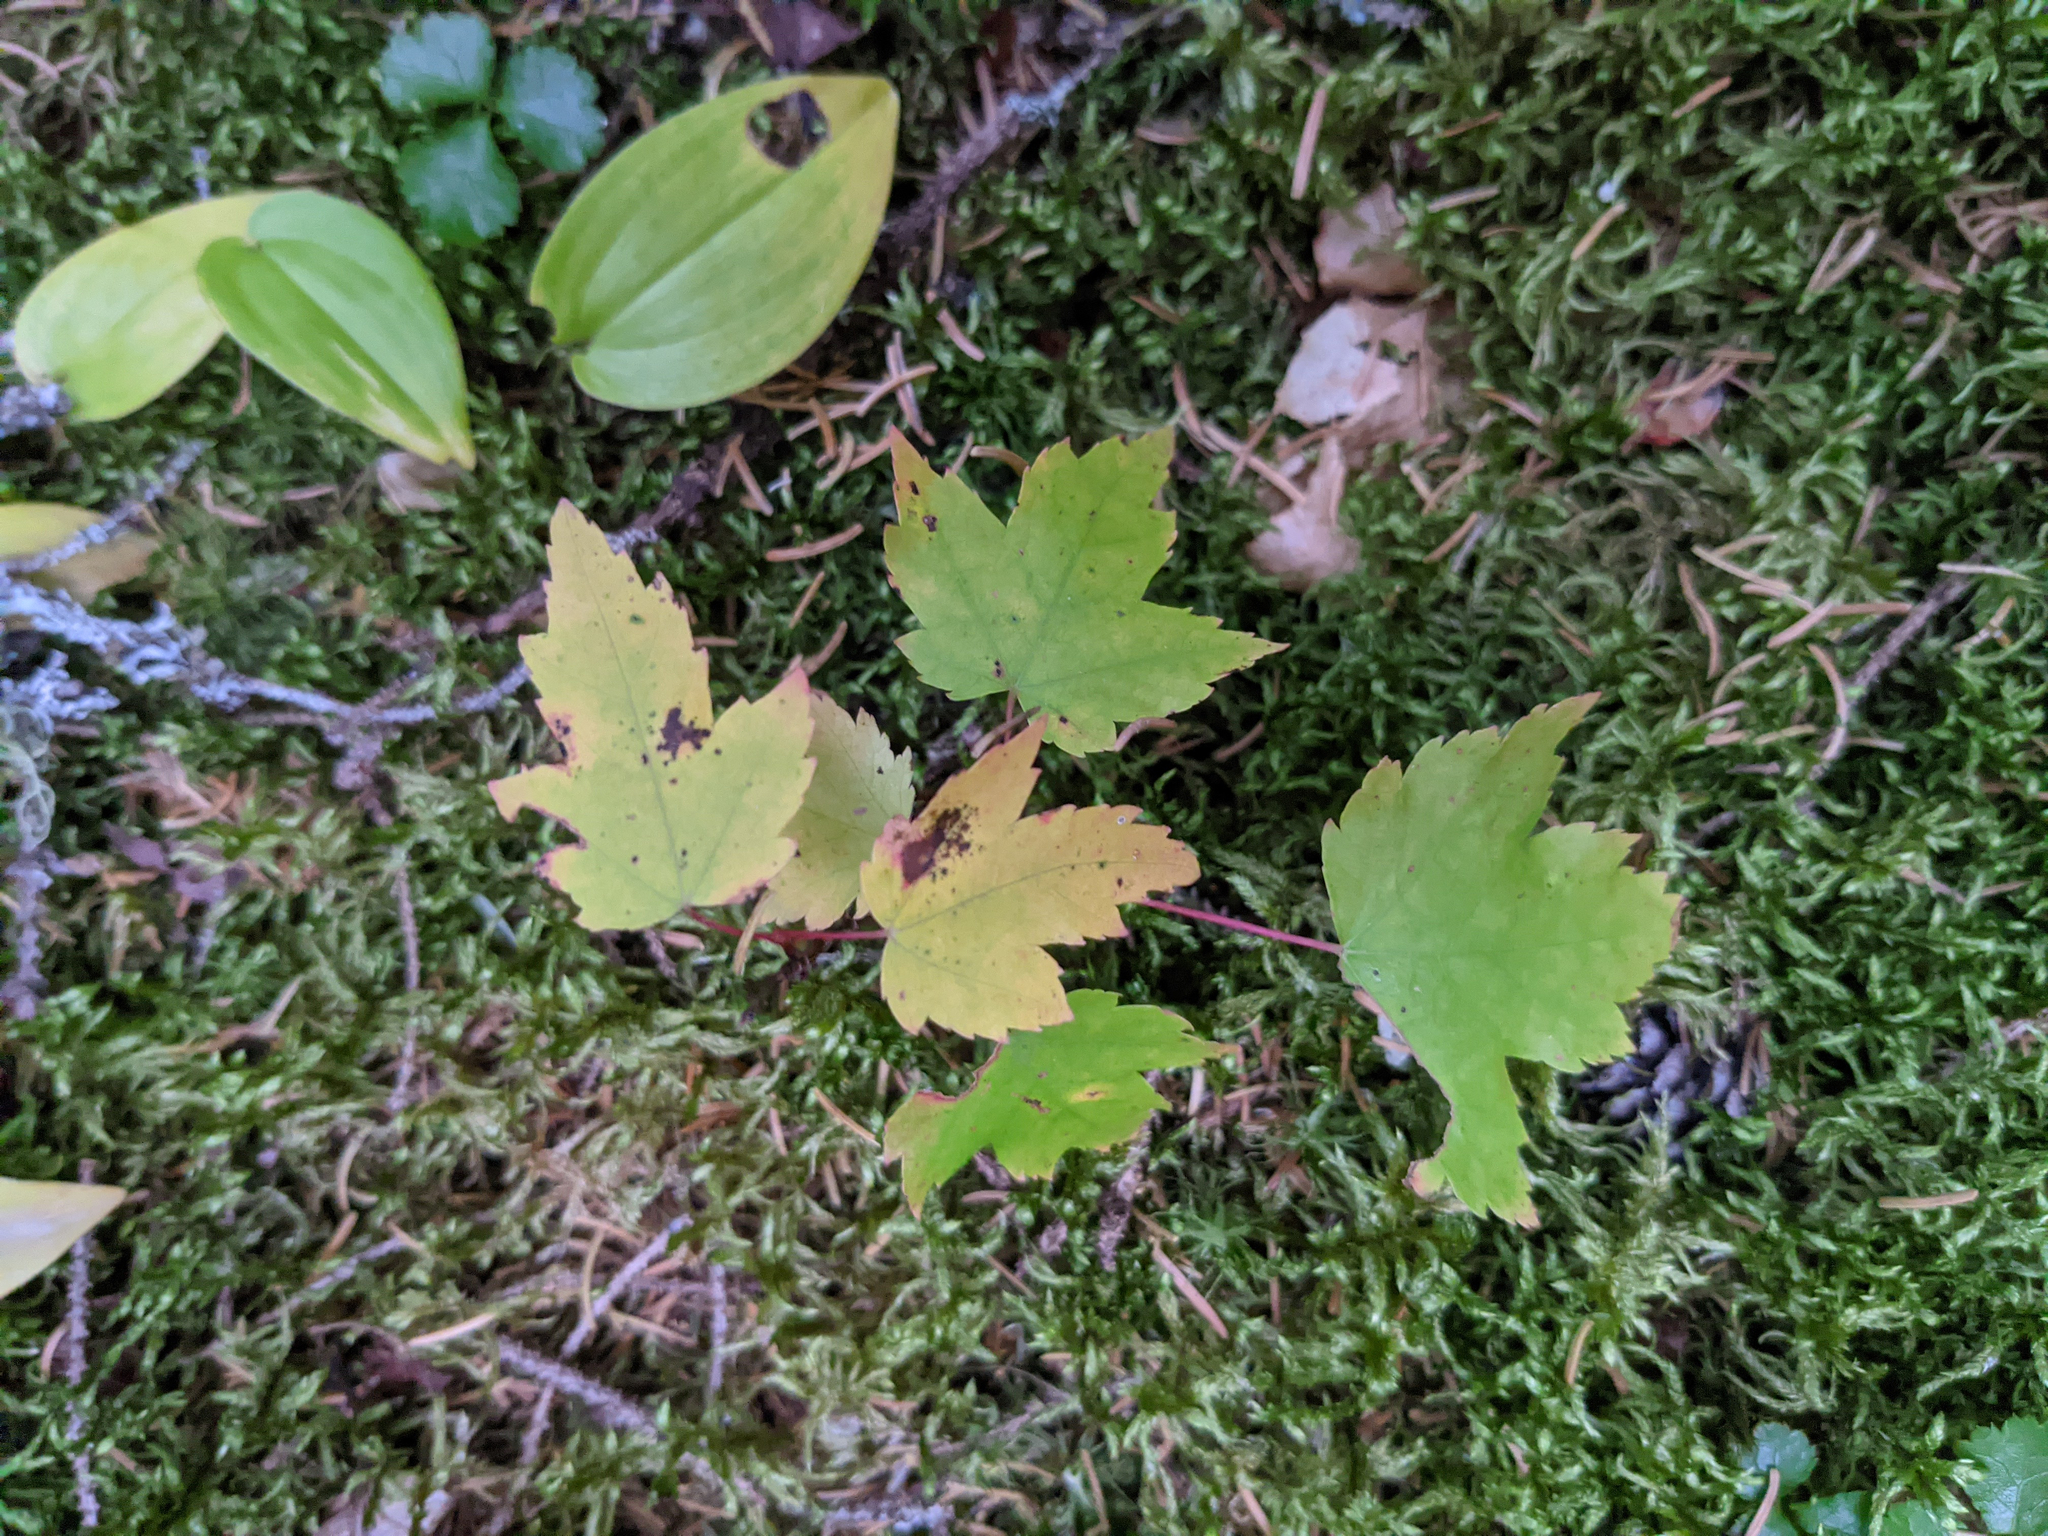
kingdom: Plantae
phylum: Tracheophyta
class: Magnoliopsida
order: Ranunculales
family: Ranunculaceae
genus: Coptis
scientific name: Coptis trifolia
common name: Canker-root
